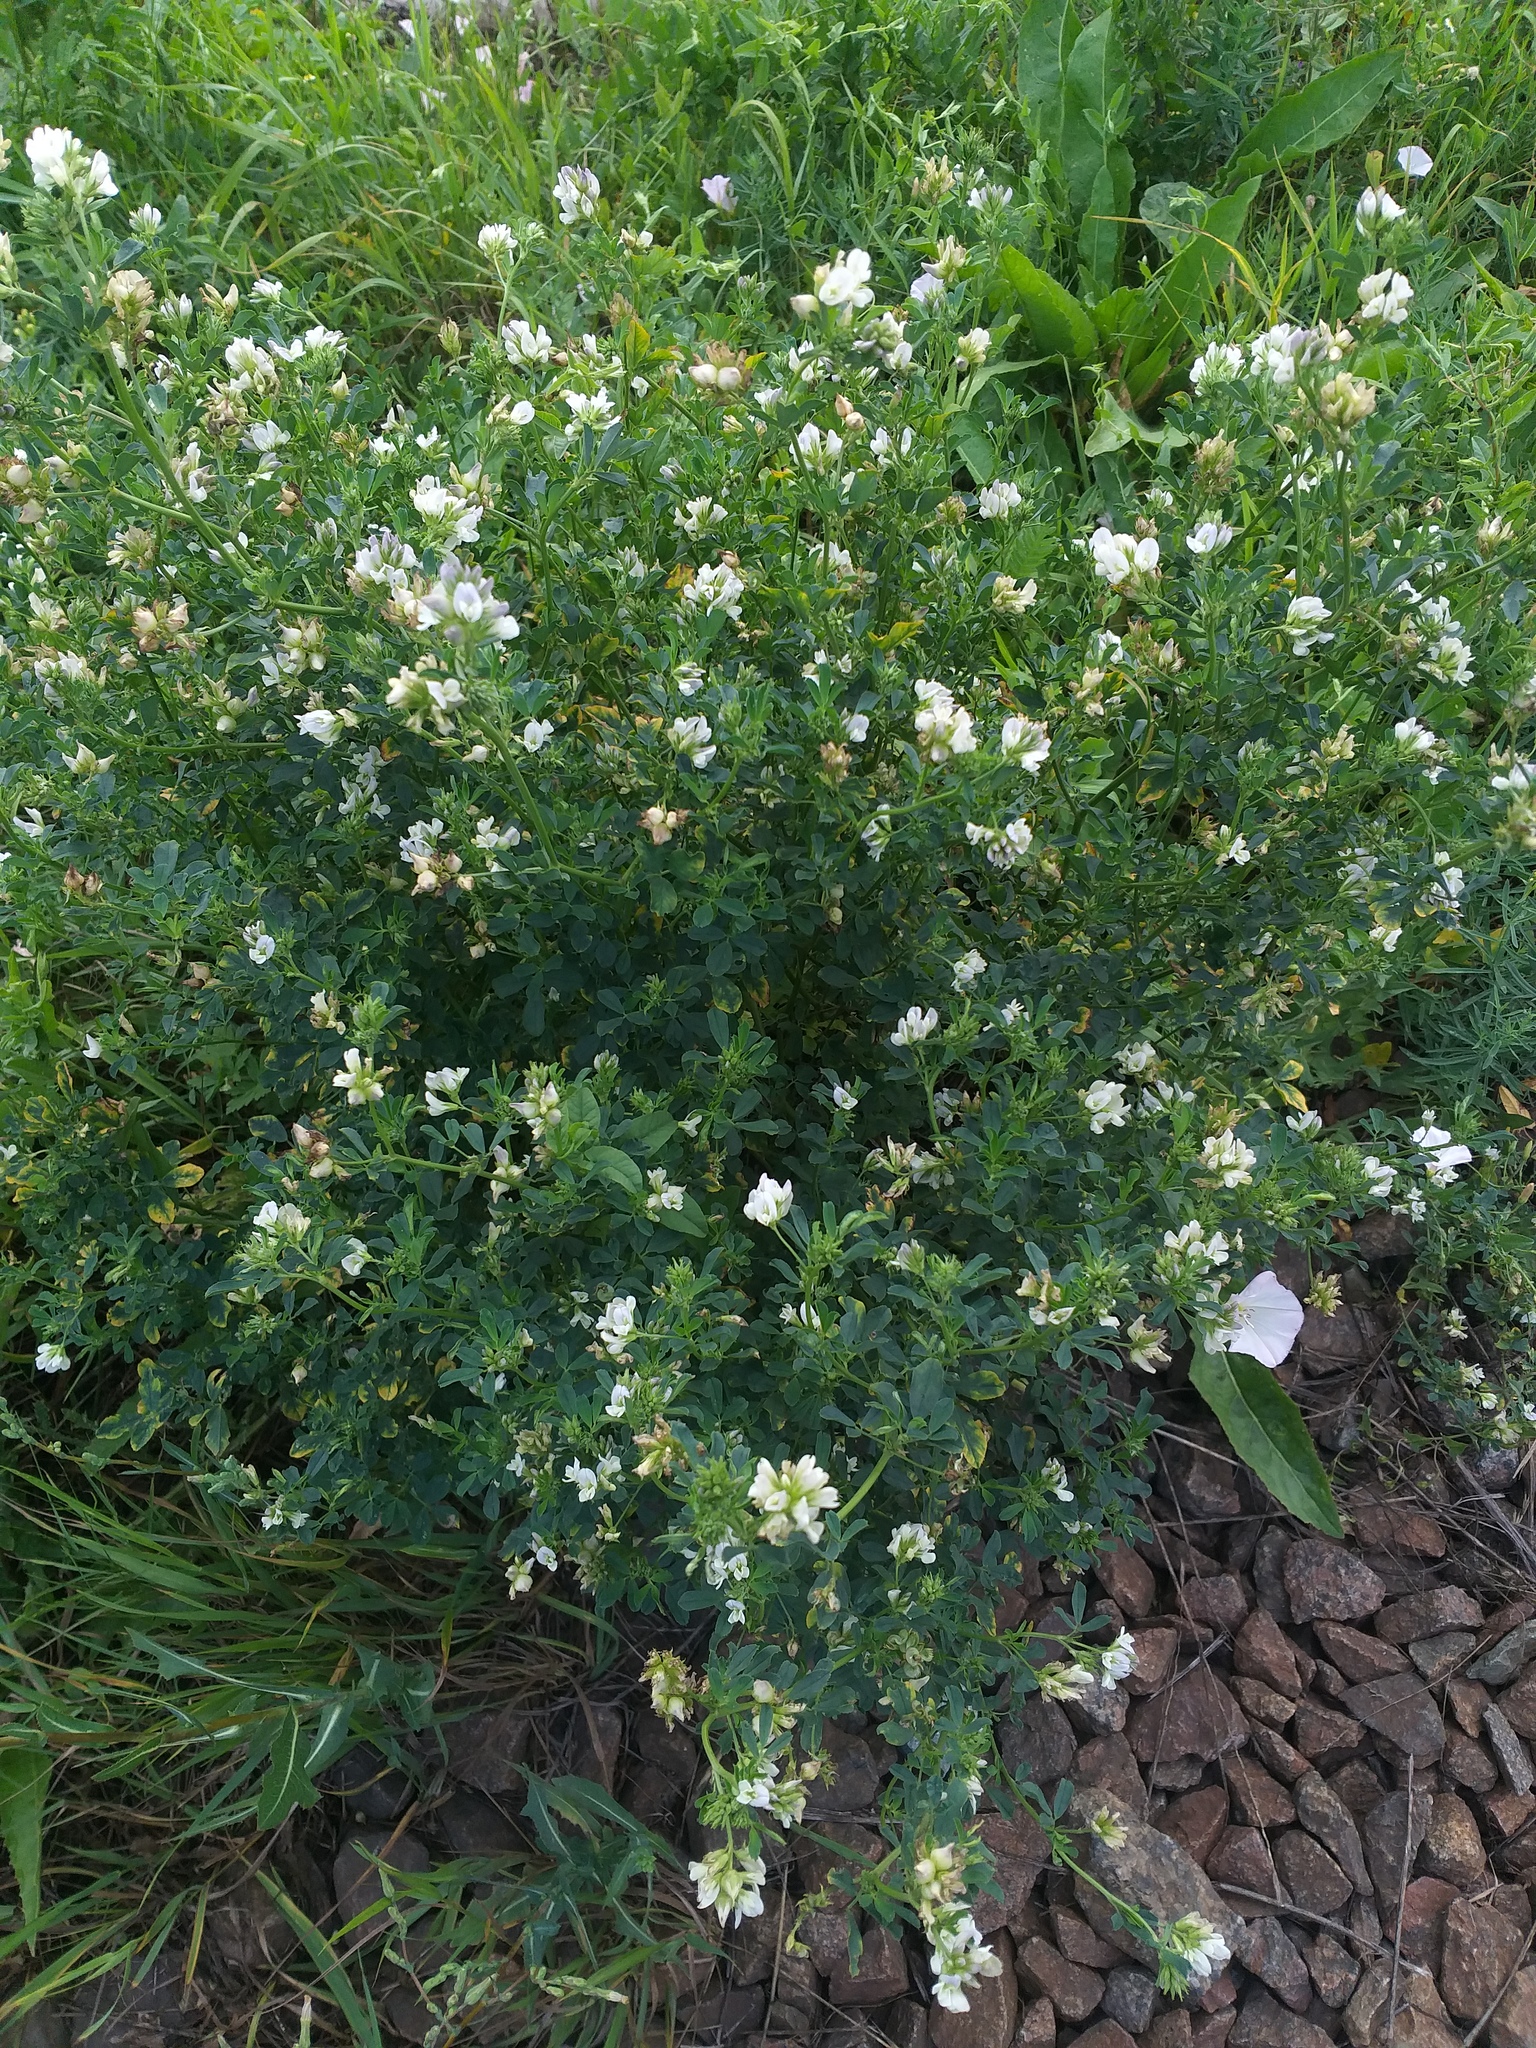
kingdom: Plantae
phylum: Tracheophyta
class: Magnoliopsida
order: Fabales
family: Fabaceae
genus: Medicago
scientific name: Medicago varia
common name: Sand lucerne
